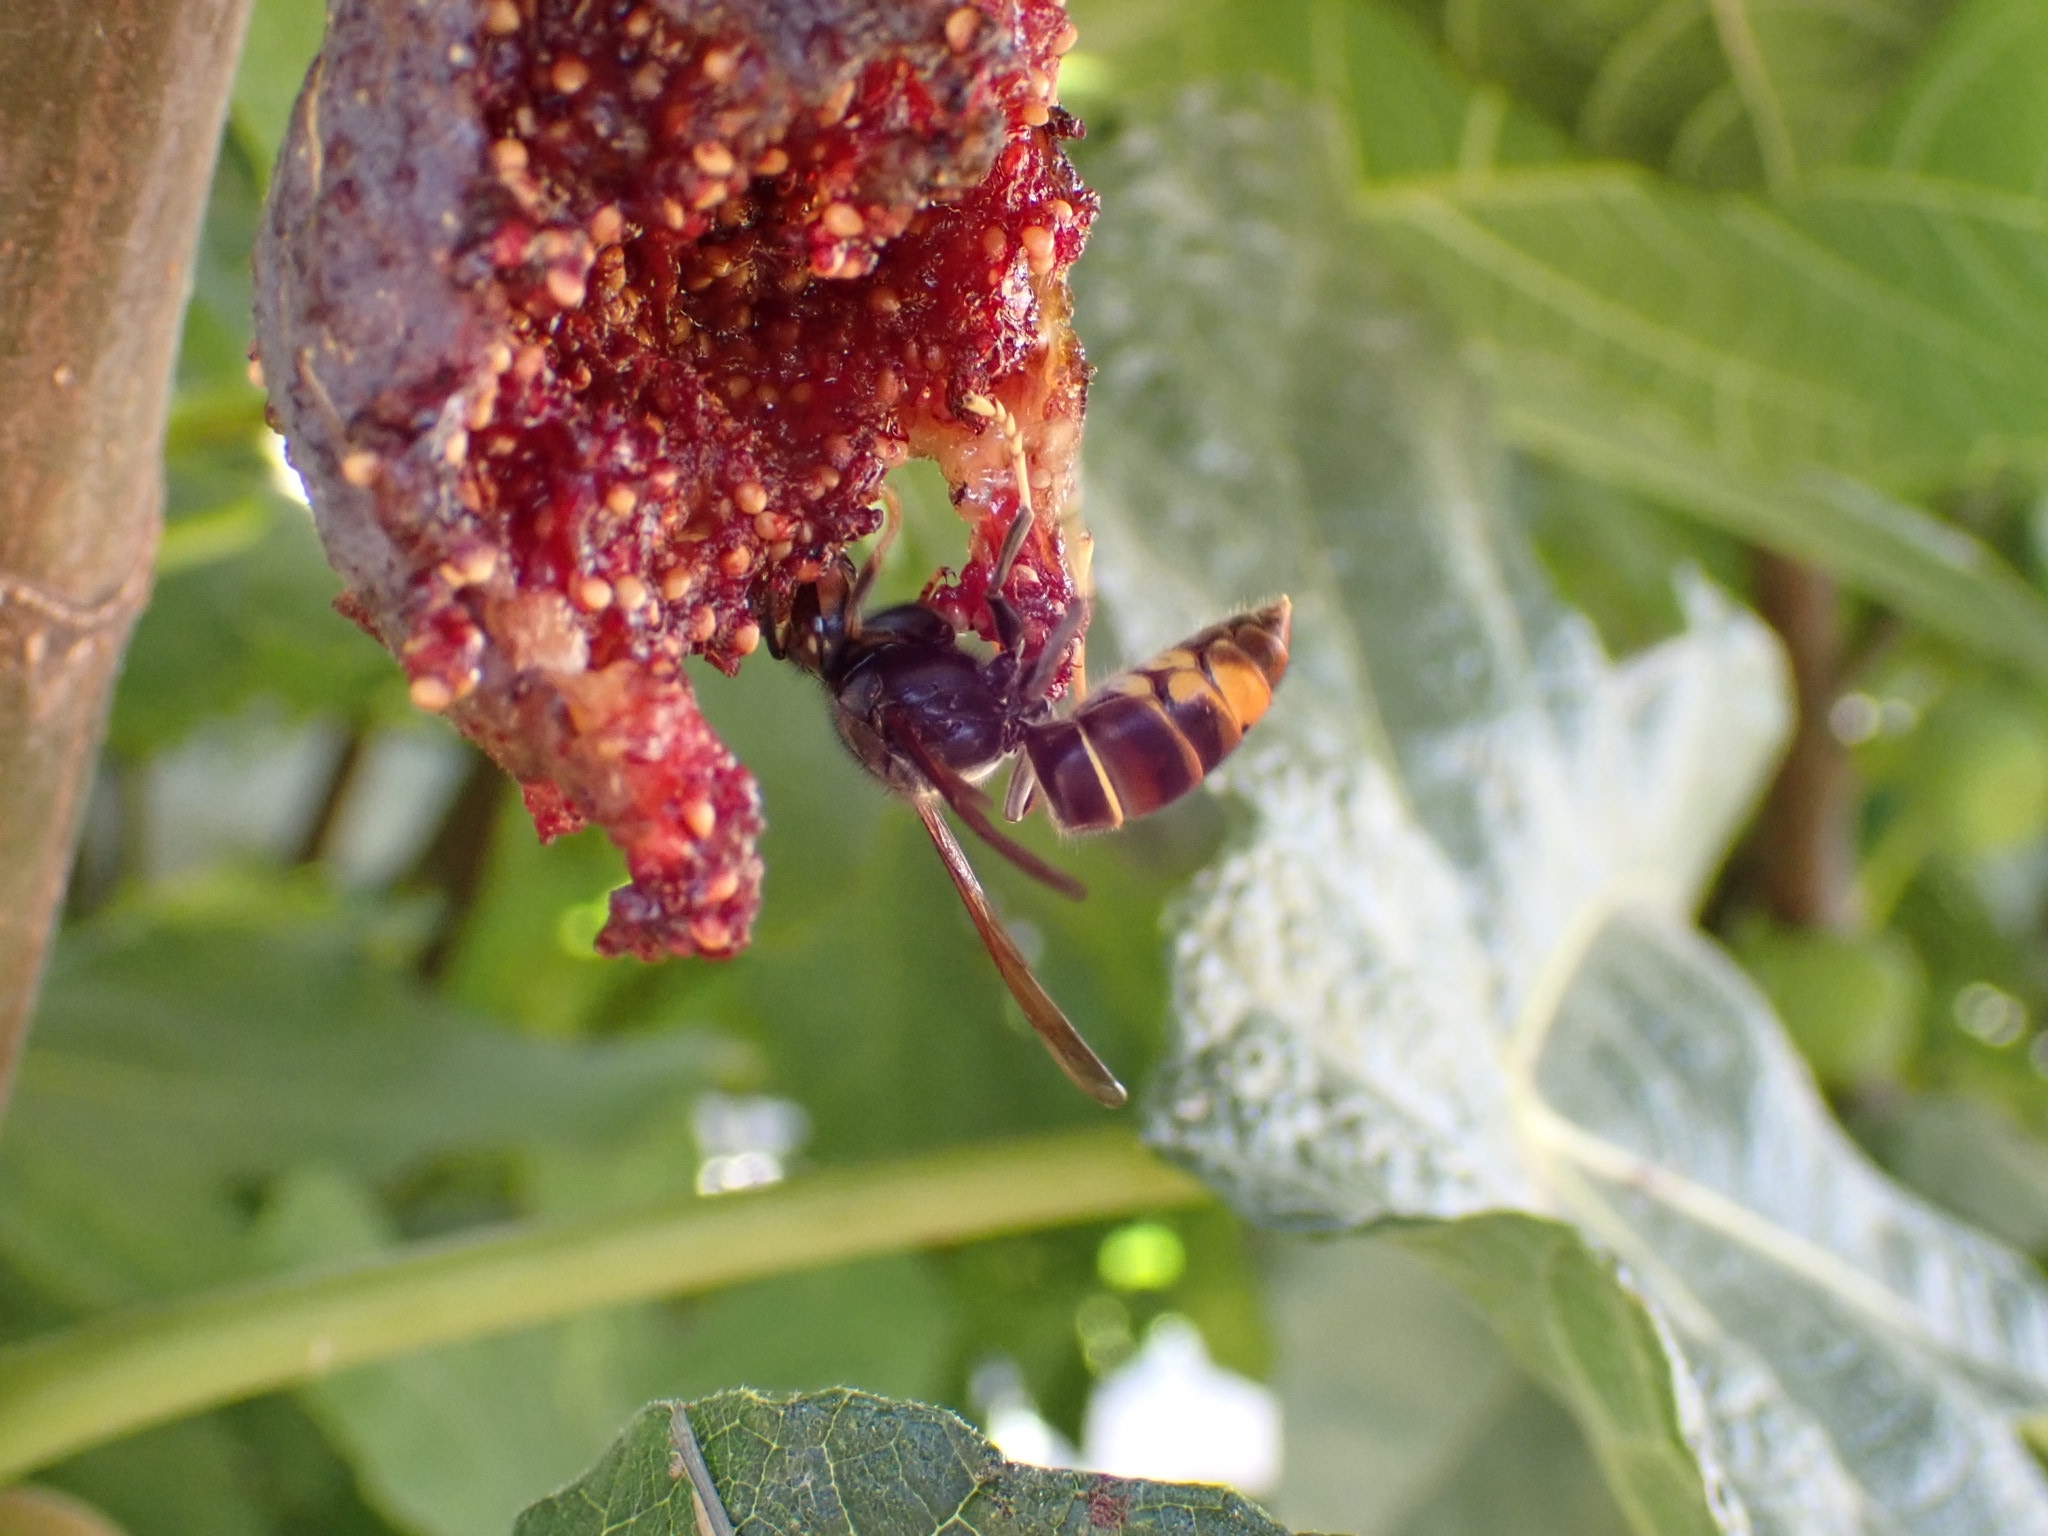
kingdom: Animalia
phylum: Arthropoda
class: Insecta
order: Hymenoptera
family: Vespidae
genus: Vespa
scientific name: Vespa velutina
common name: Asian hornet
